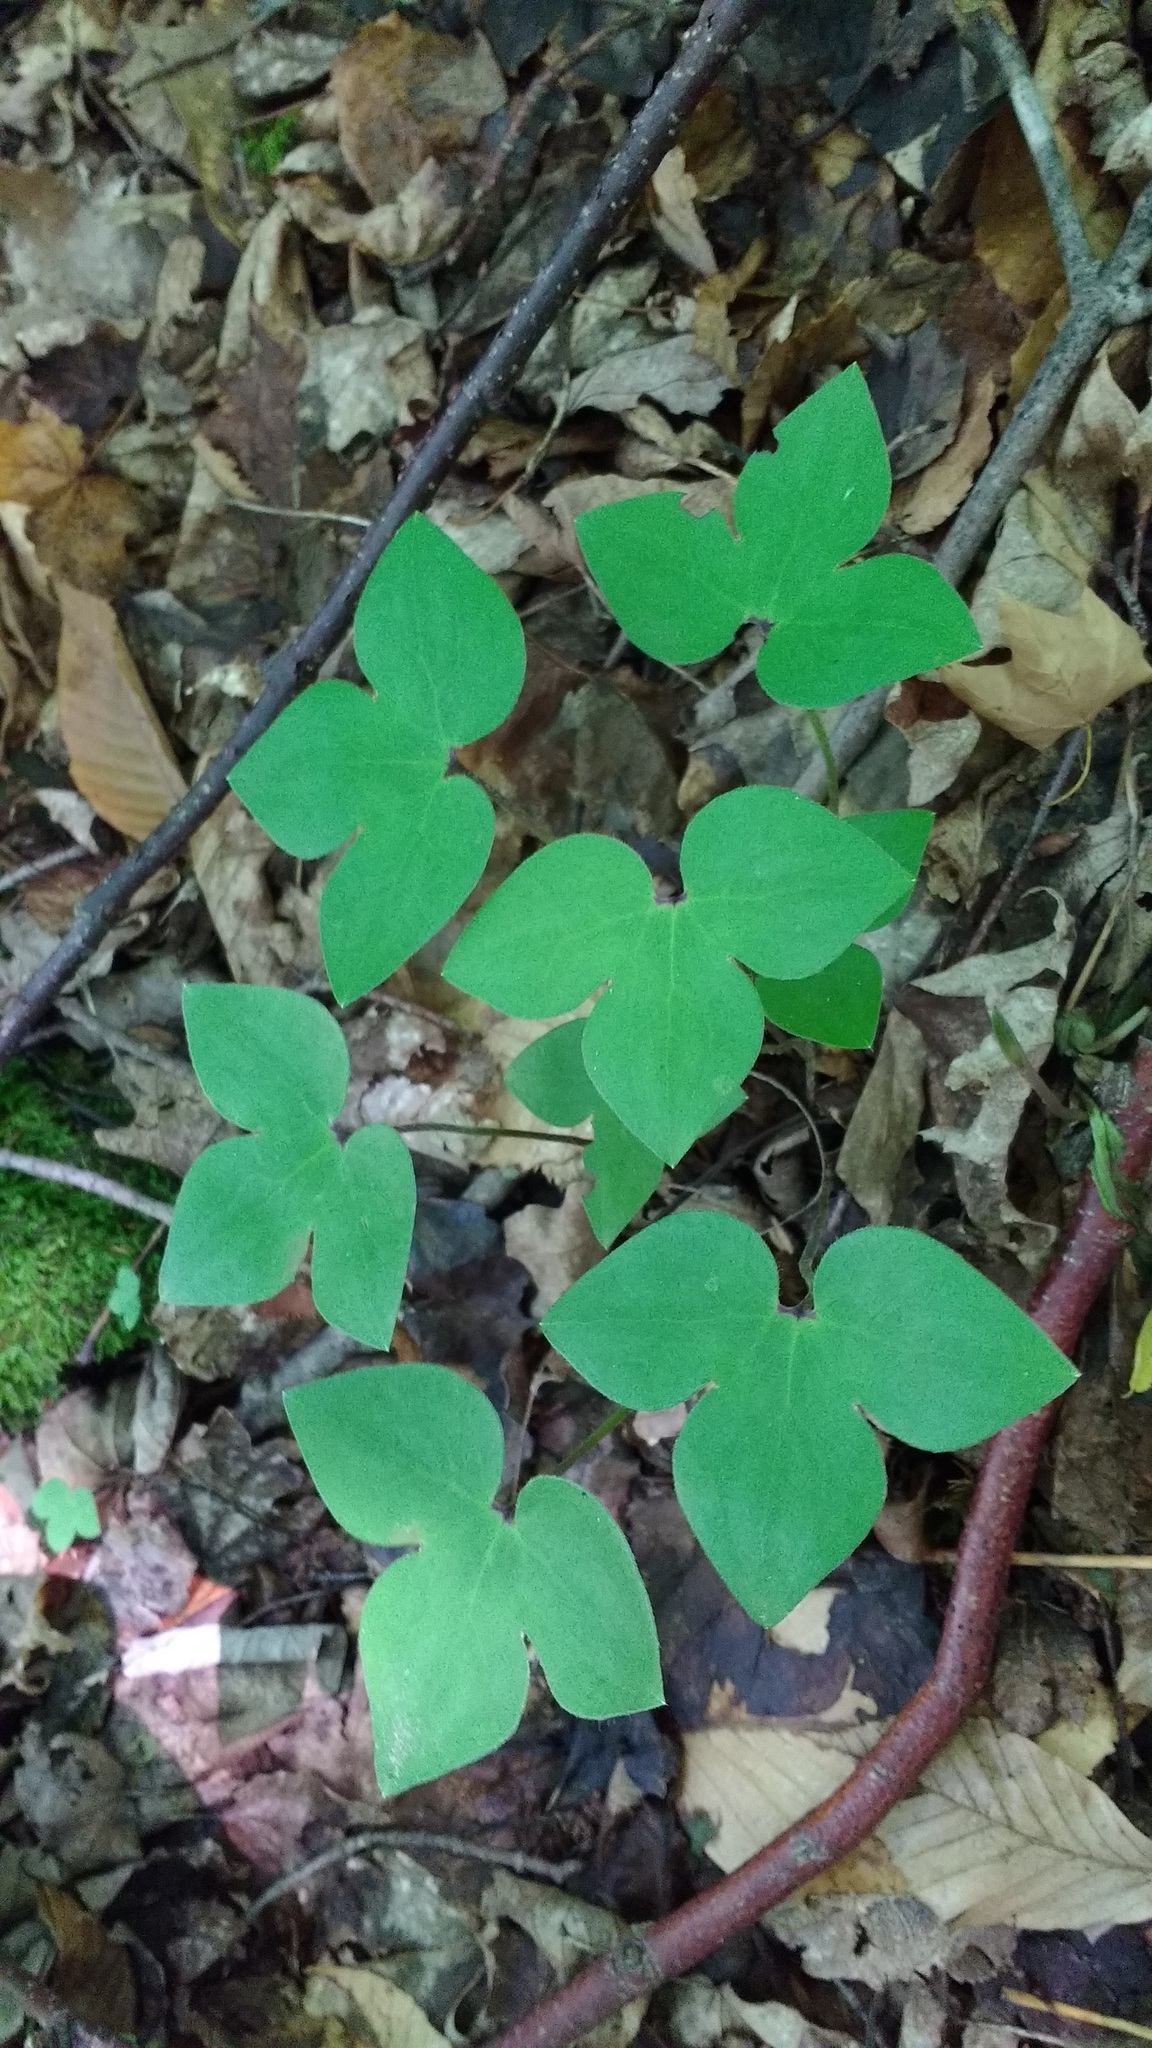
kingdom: Plantae
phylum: Tracheophyta
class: Magnoliopsida
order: Ranunculales
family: Ranunculaceae
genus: Hepatica
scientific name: Hepatica acutiloba
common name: Sharp-lobed hepatica
